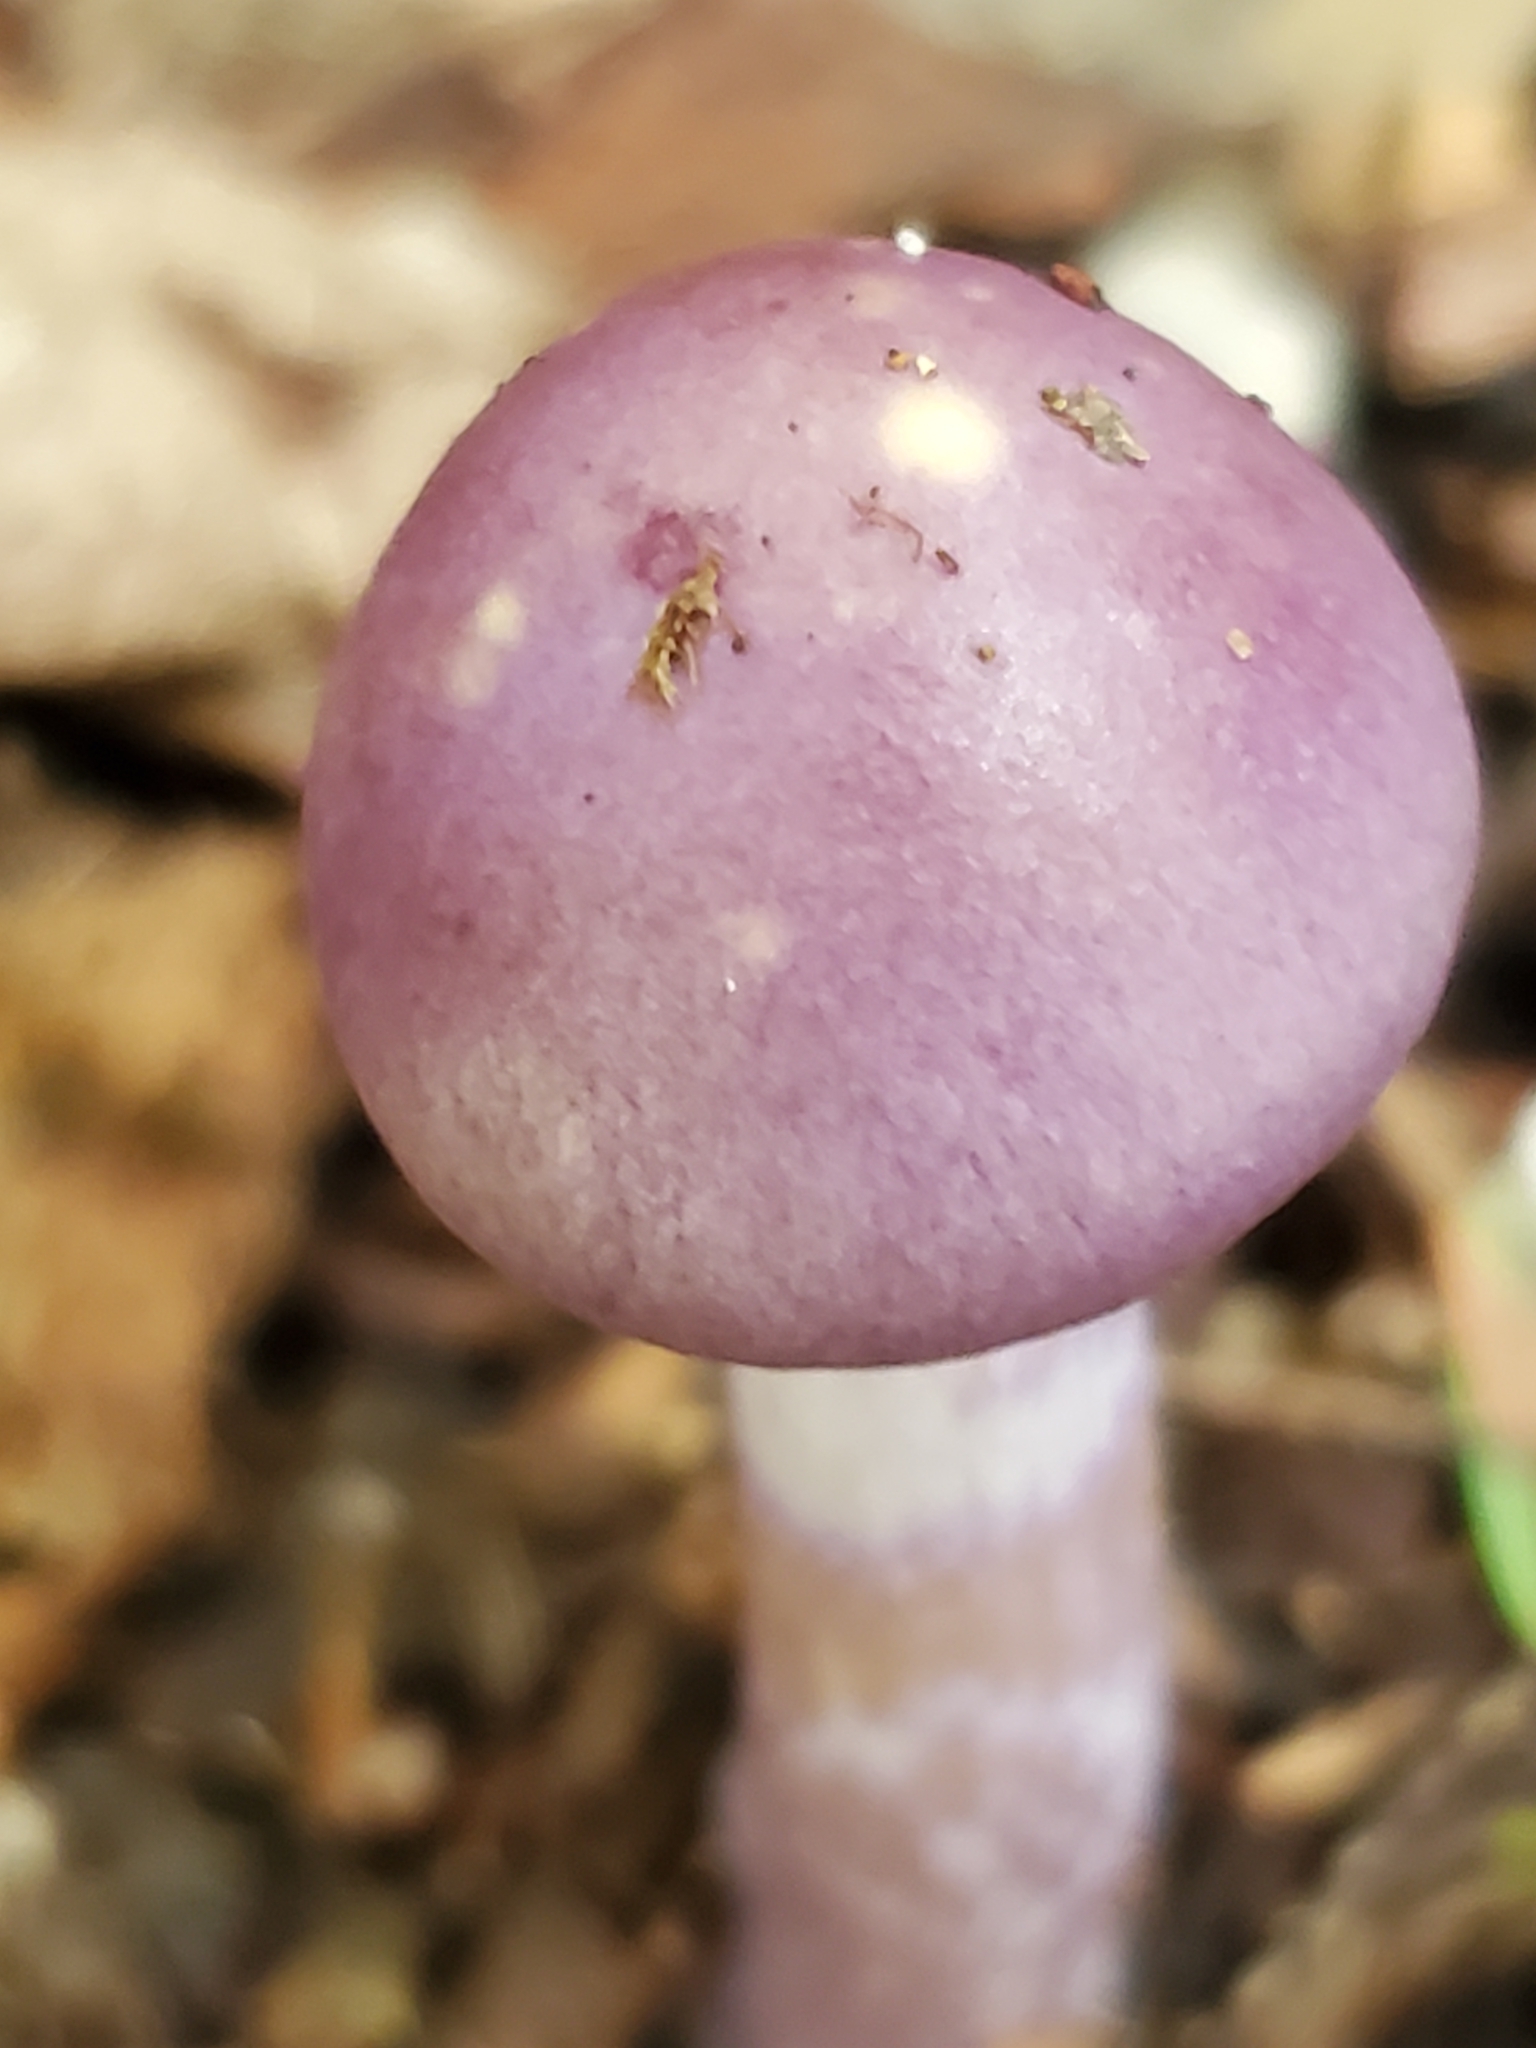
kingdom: Fungi
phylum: Basidiomycota
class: Agaricomycetes
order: Agaricales
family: Cortinariaceae
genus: Cortinarius
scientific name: Cortinarius iodes
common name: Viscid violet cort
